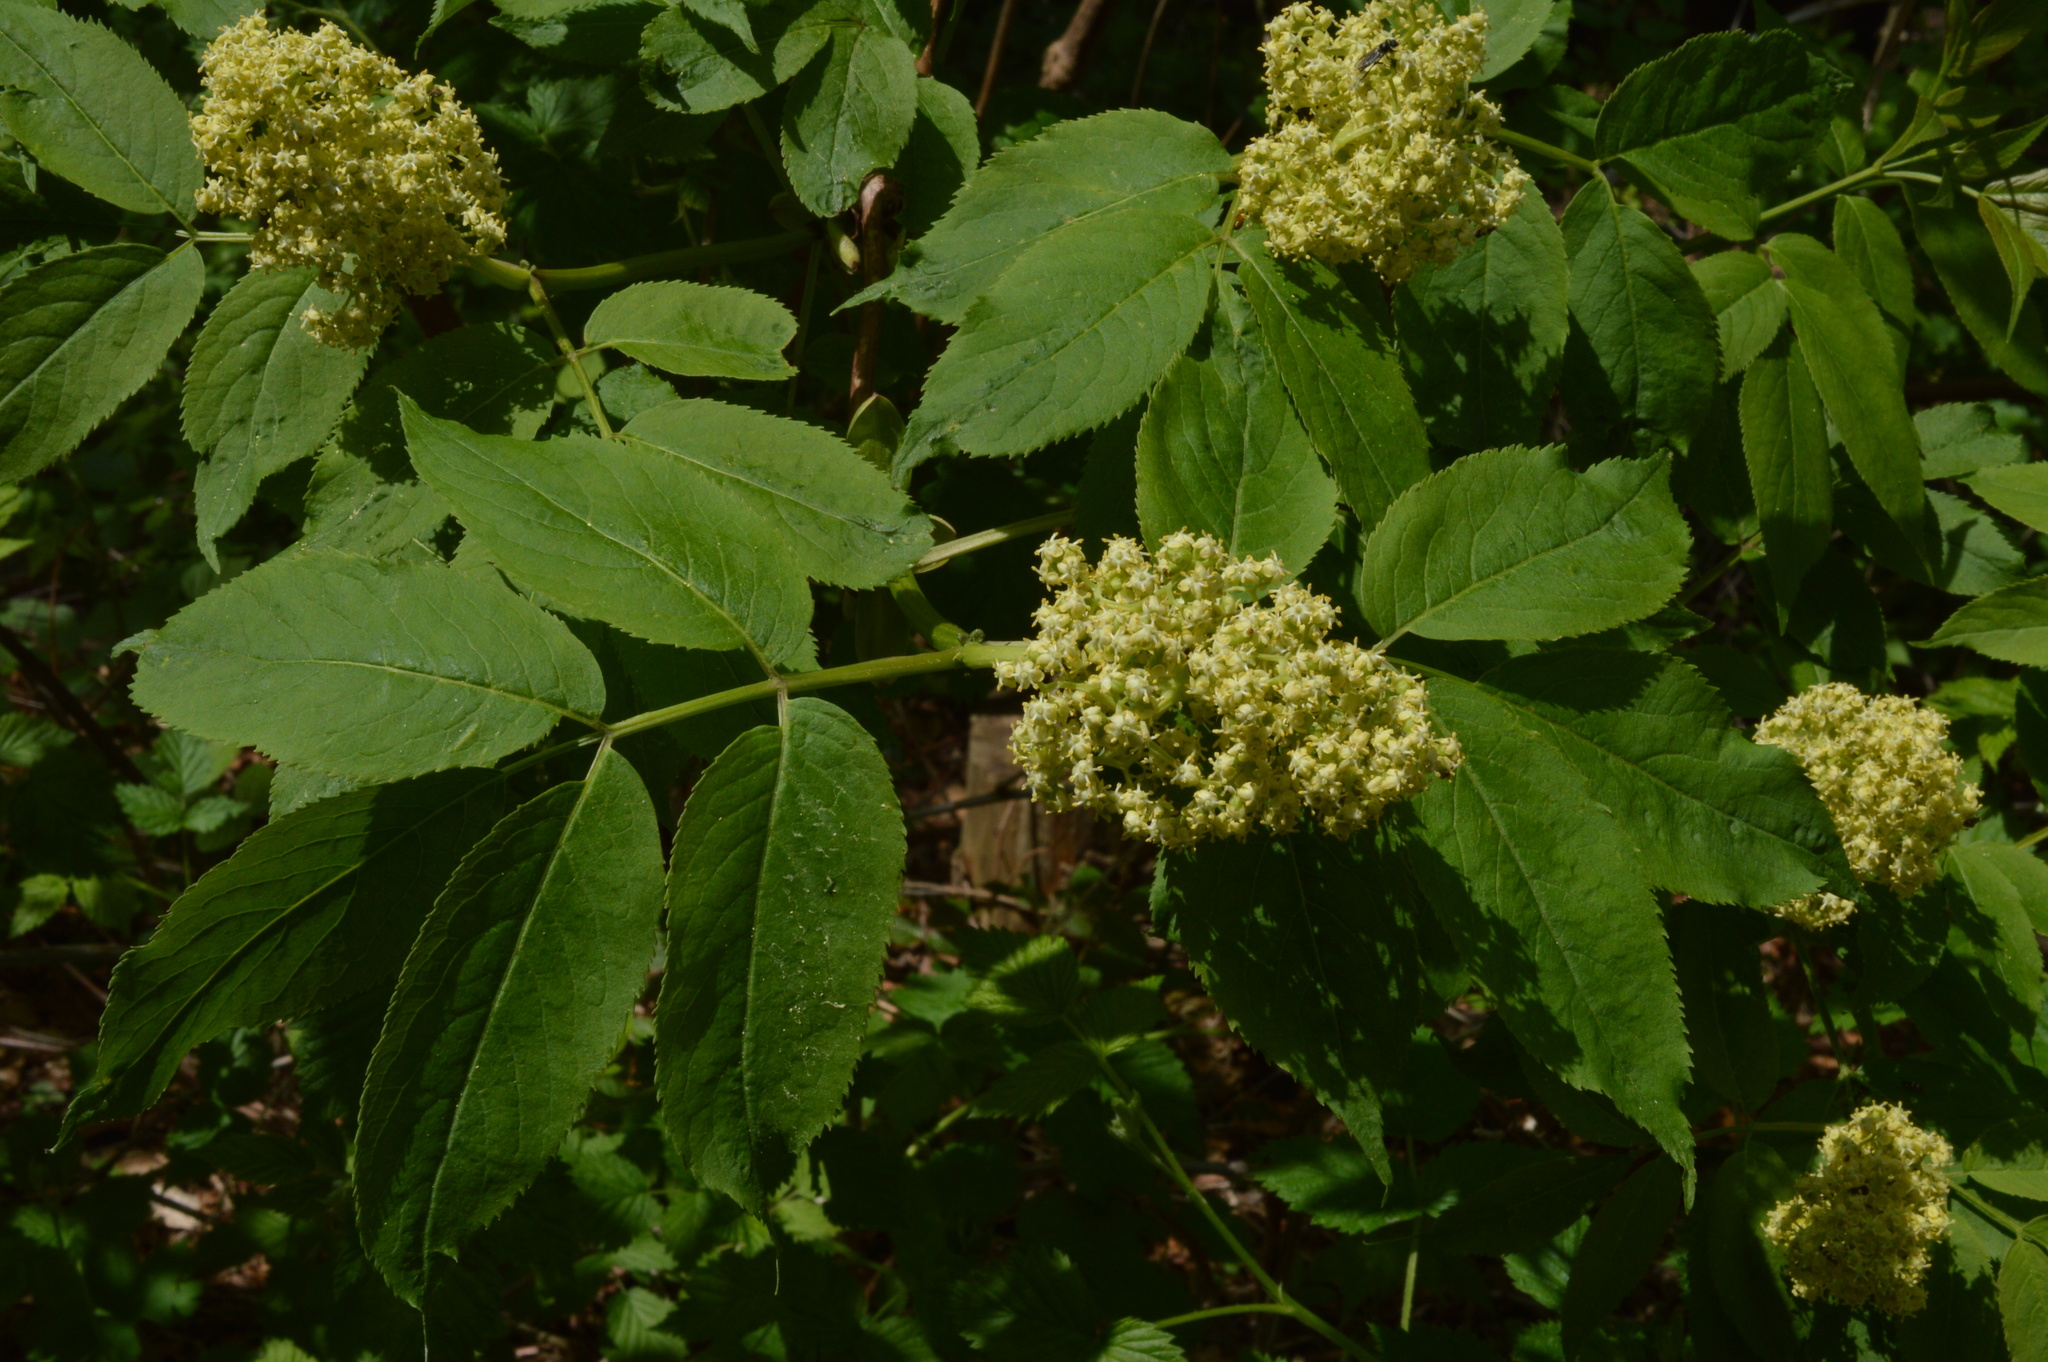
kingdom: Plantae
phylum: Tracheophyta
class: Magnoliopsida
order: Dipsacales
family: Viburnaceae
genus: Sambucus
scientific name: Sambucus racemosa
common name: Red-berried elder
